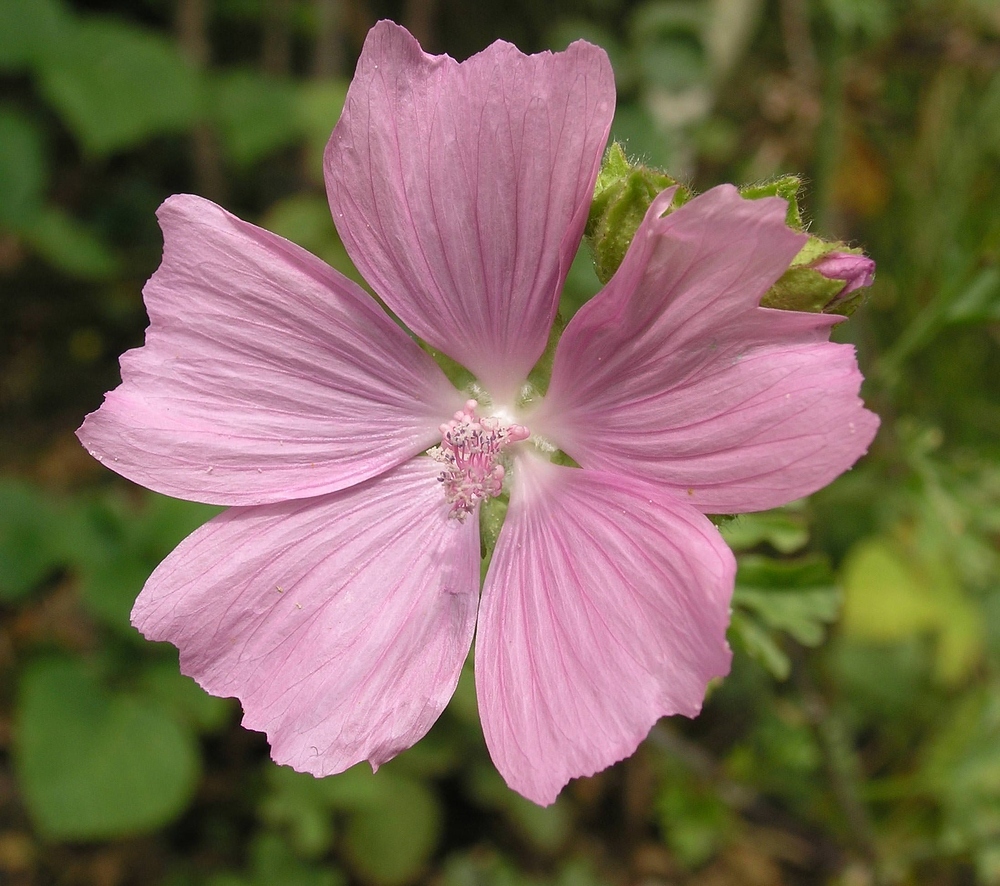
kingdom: Plantae
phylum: Tracheophyta
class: Magnoliopsida
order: Malvales
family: Malvaceae
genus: Malva
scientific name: Malva moschata
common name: Musk mallow
